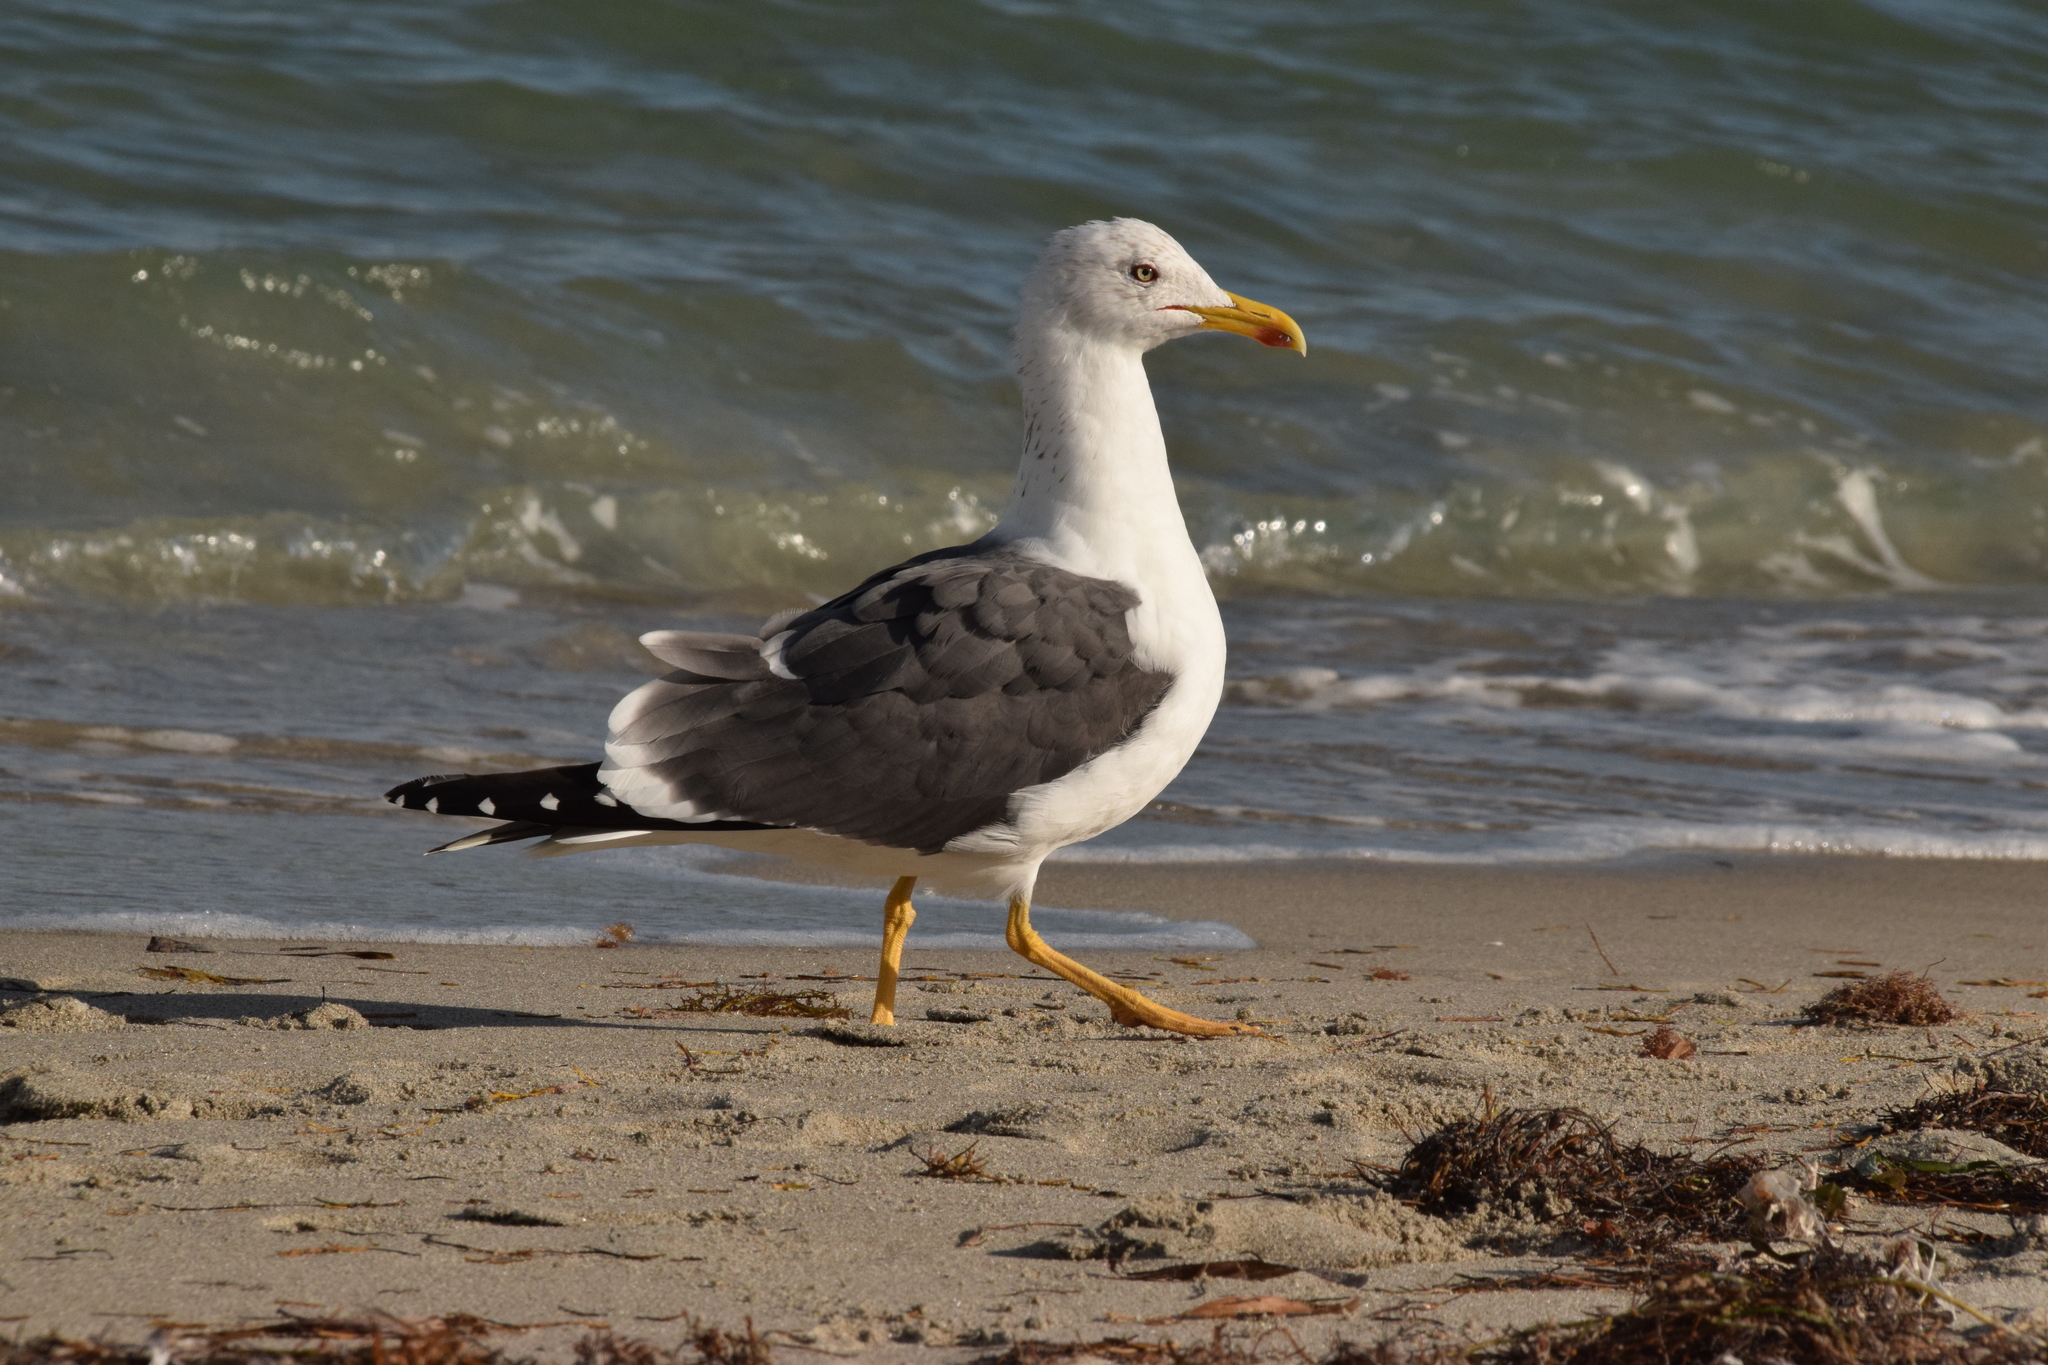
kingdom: Animalia
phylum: Chordata
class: Aves
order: Charadriiformes
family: Laridae
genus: Larus
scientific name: Larus fuscus
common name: Lesser black-backed gull
